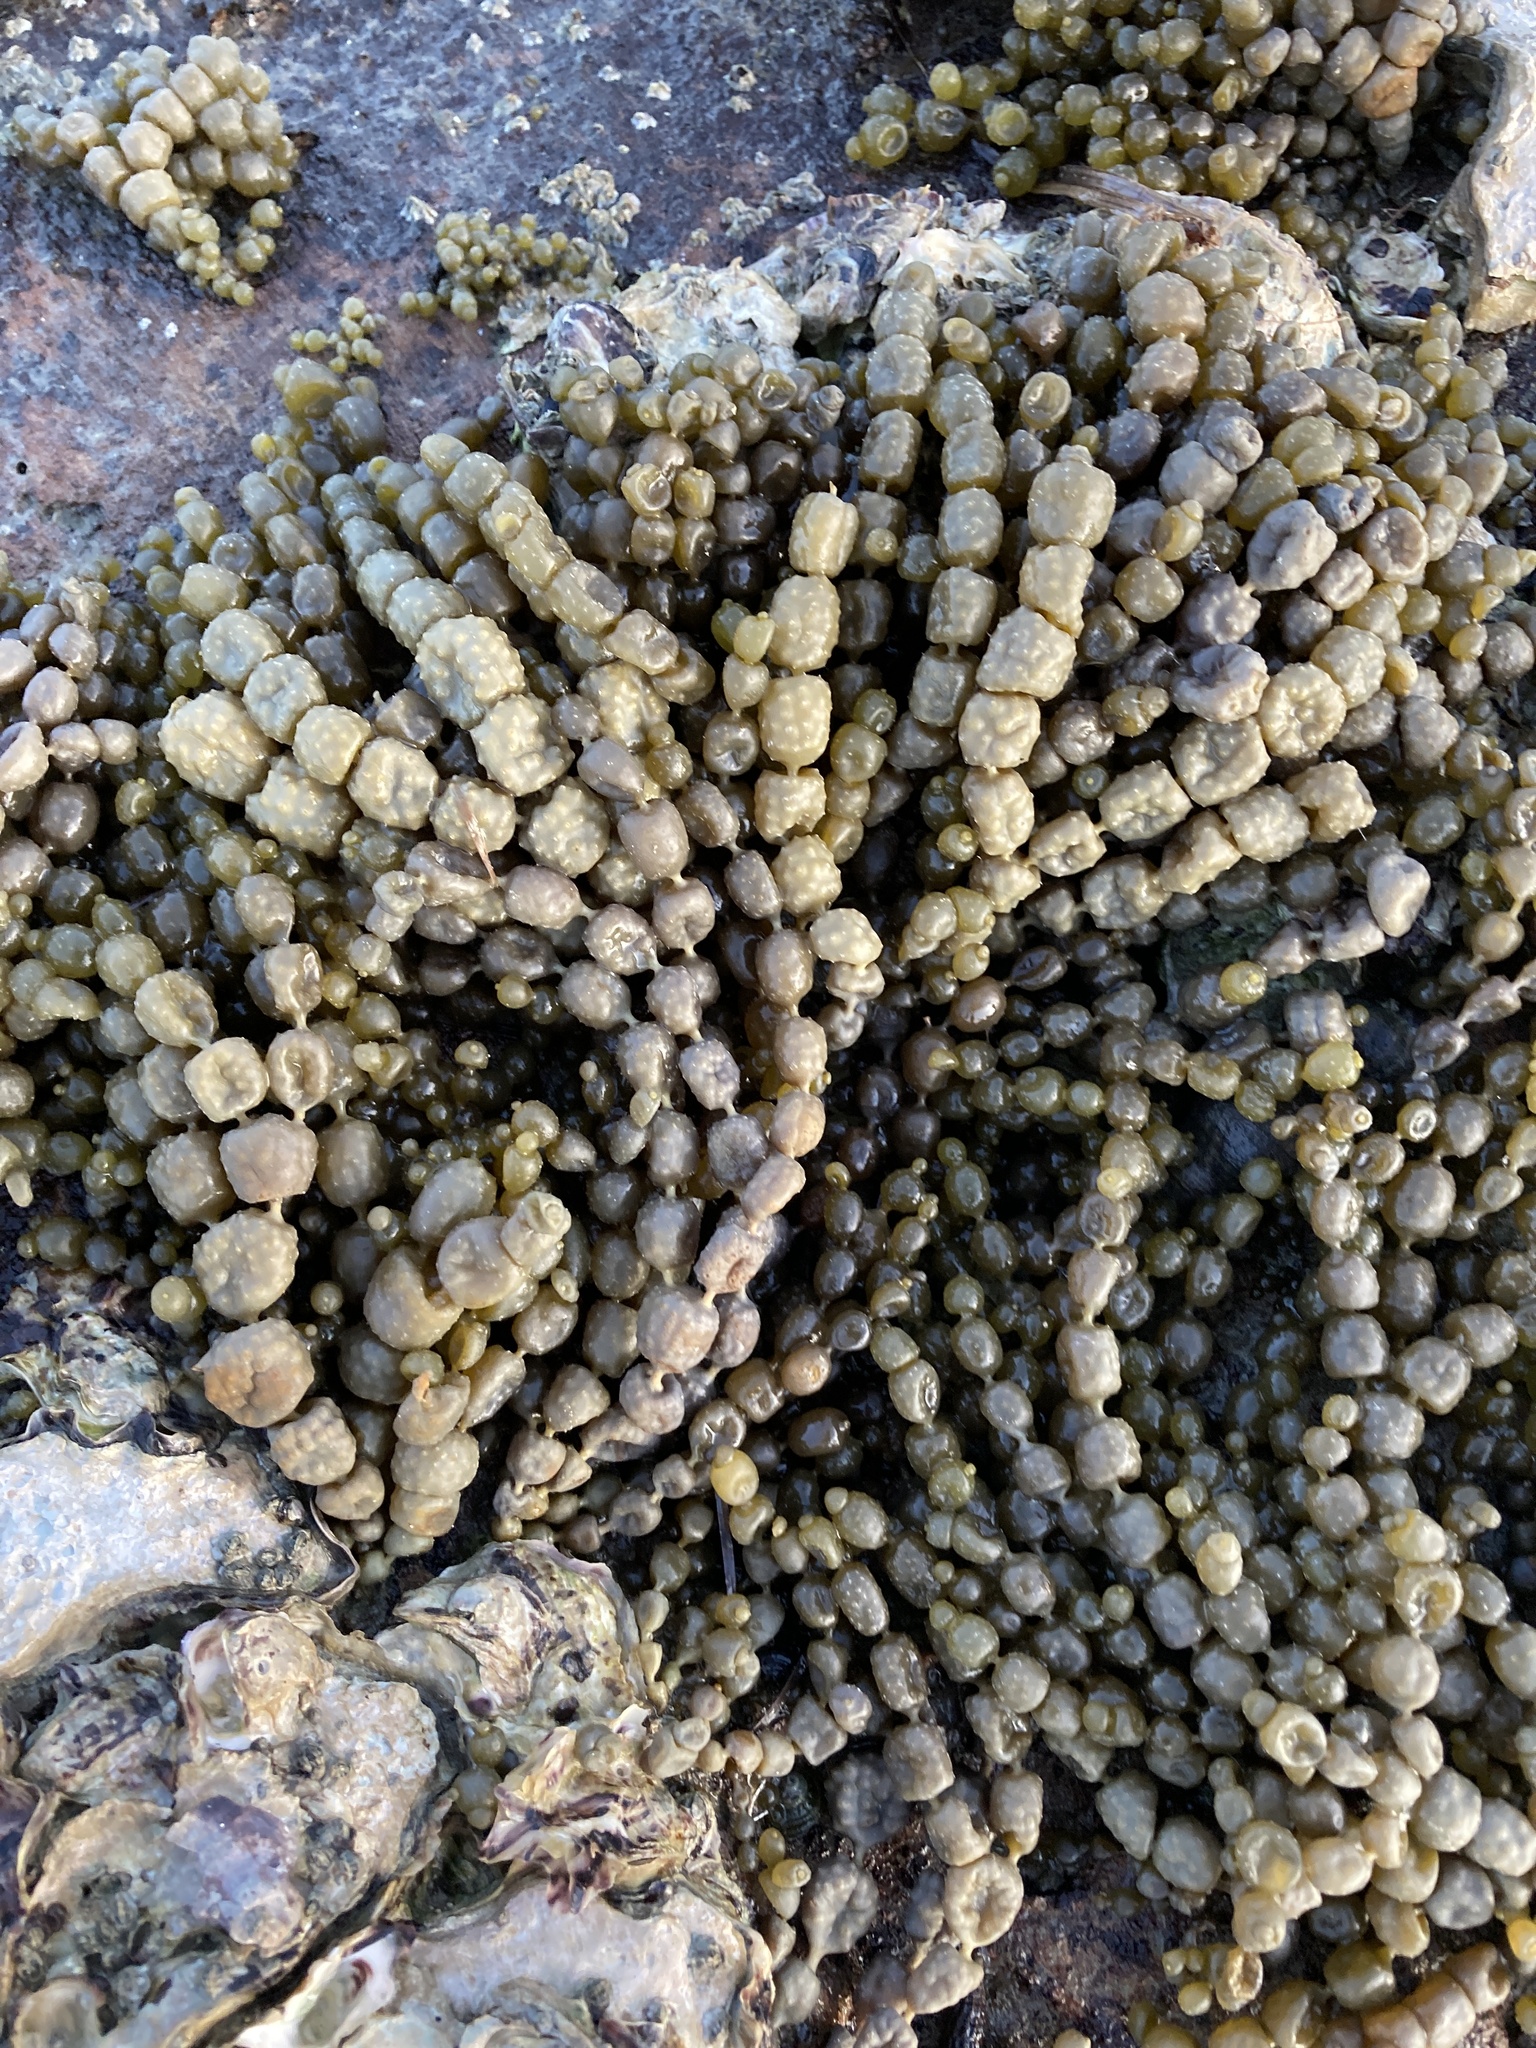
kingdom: Chromista
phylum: Ochrophyta
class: Phaeophyceae
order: Fucales
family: Hormosiraceae
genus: Hormosira
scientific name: Hormosira banksii
